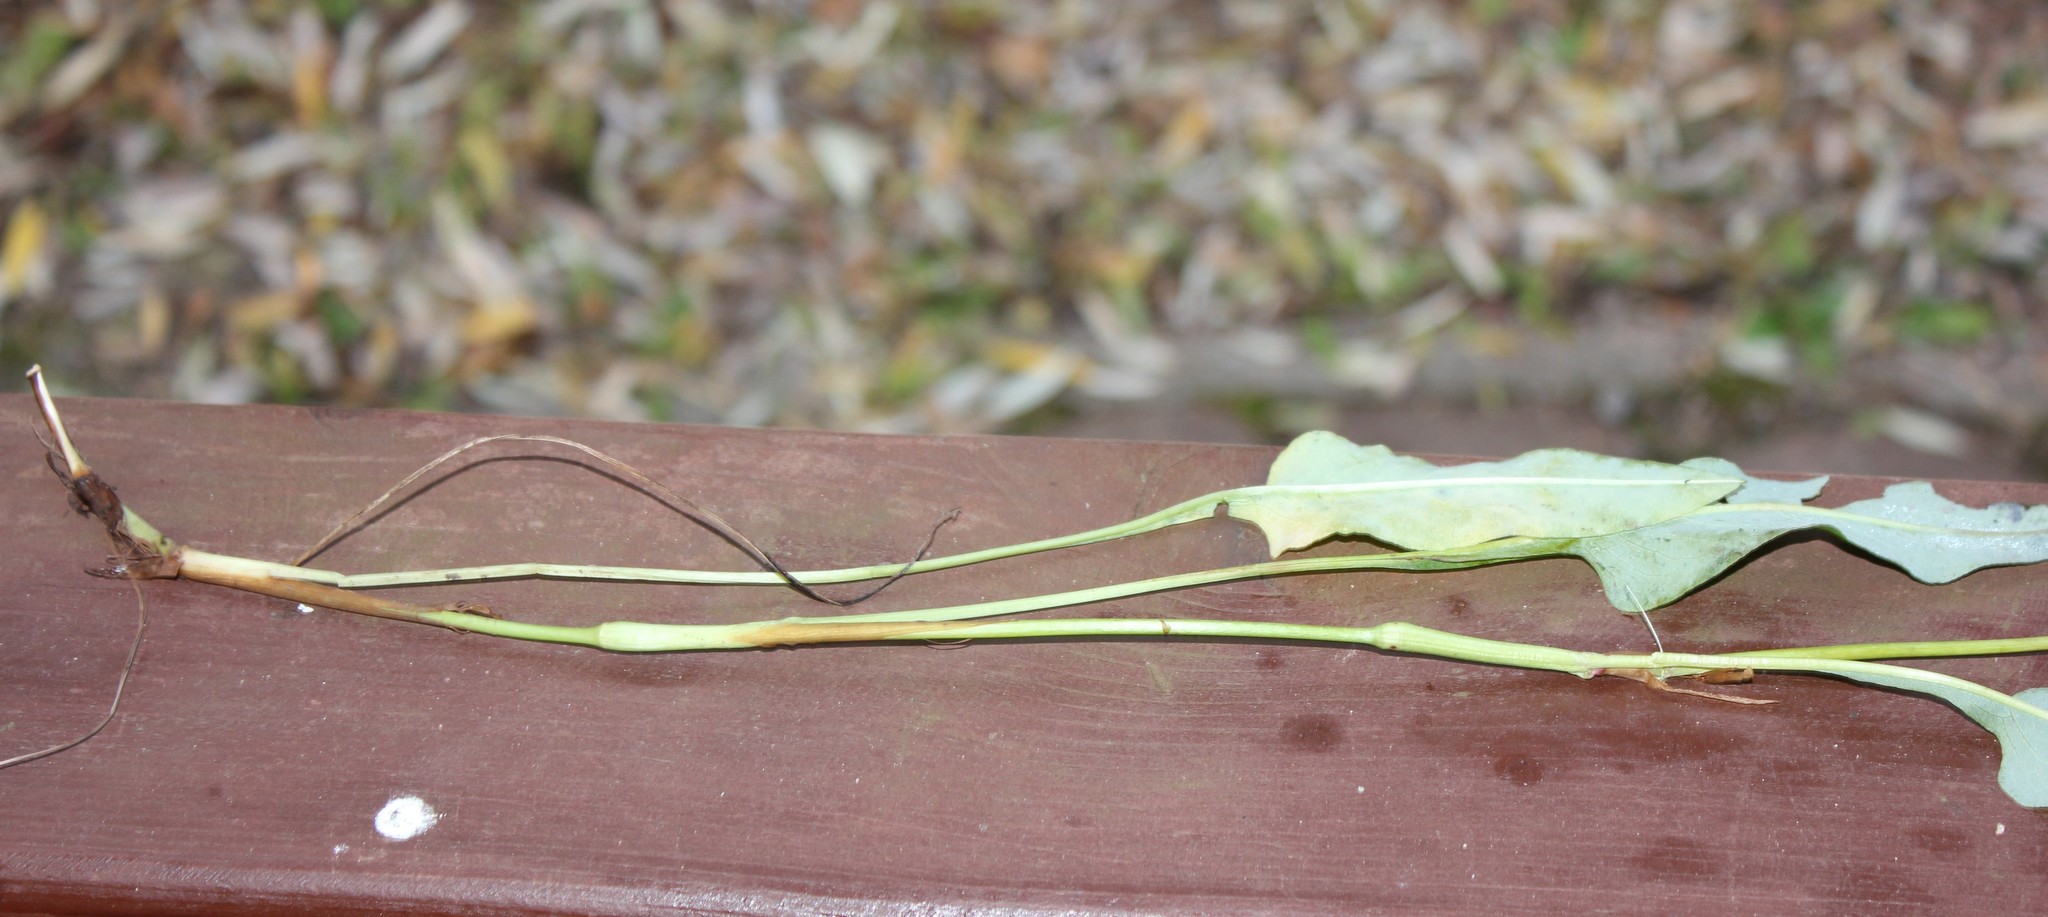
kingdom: Plantae
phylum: Tracheophyta
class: Magnoliopsida
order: Caryophyllales
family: Polygonaceae
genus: Bistorta
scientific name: Bistorta officinalis
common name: Common bistort
